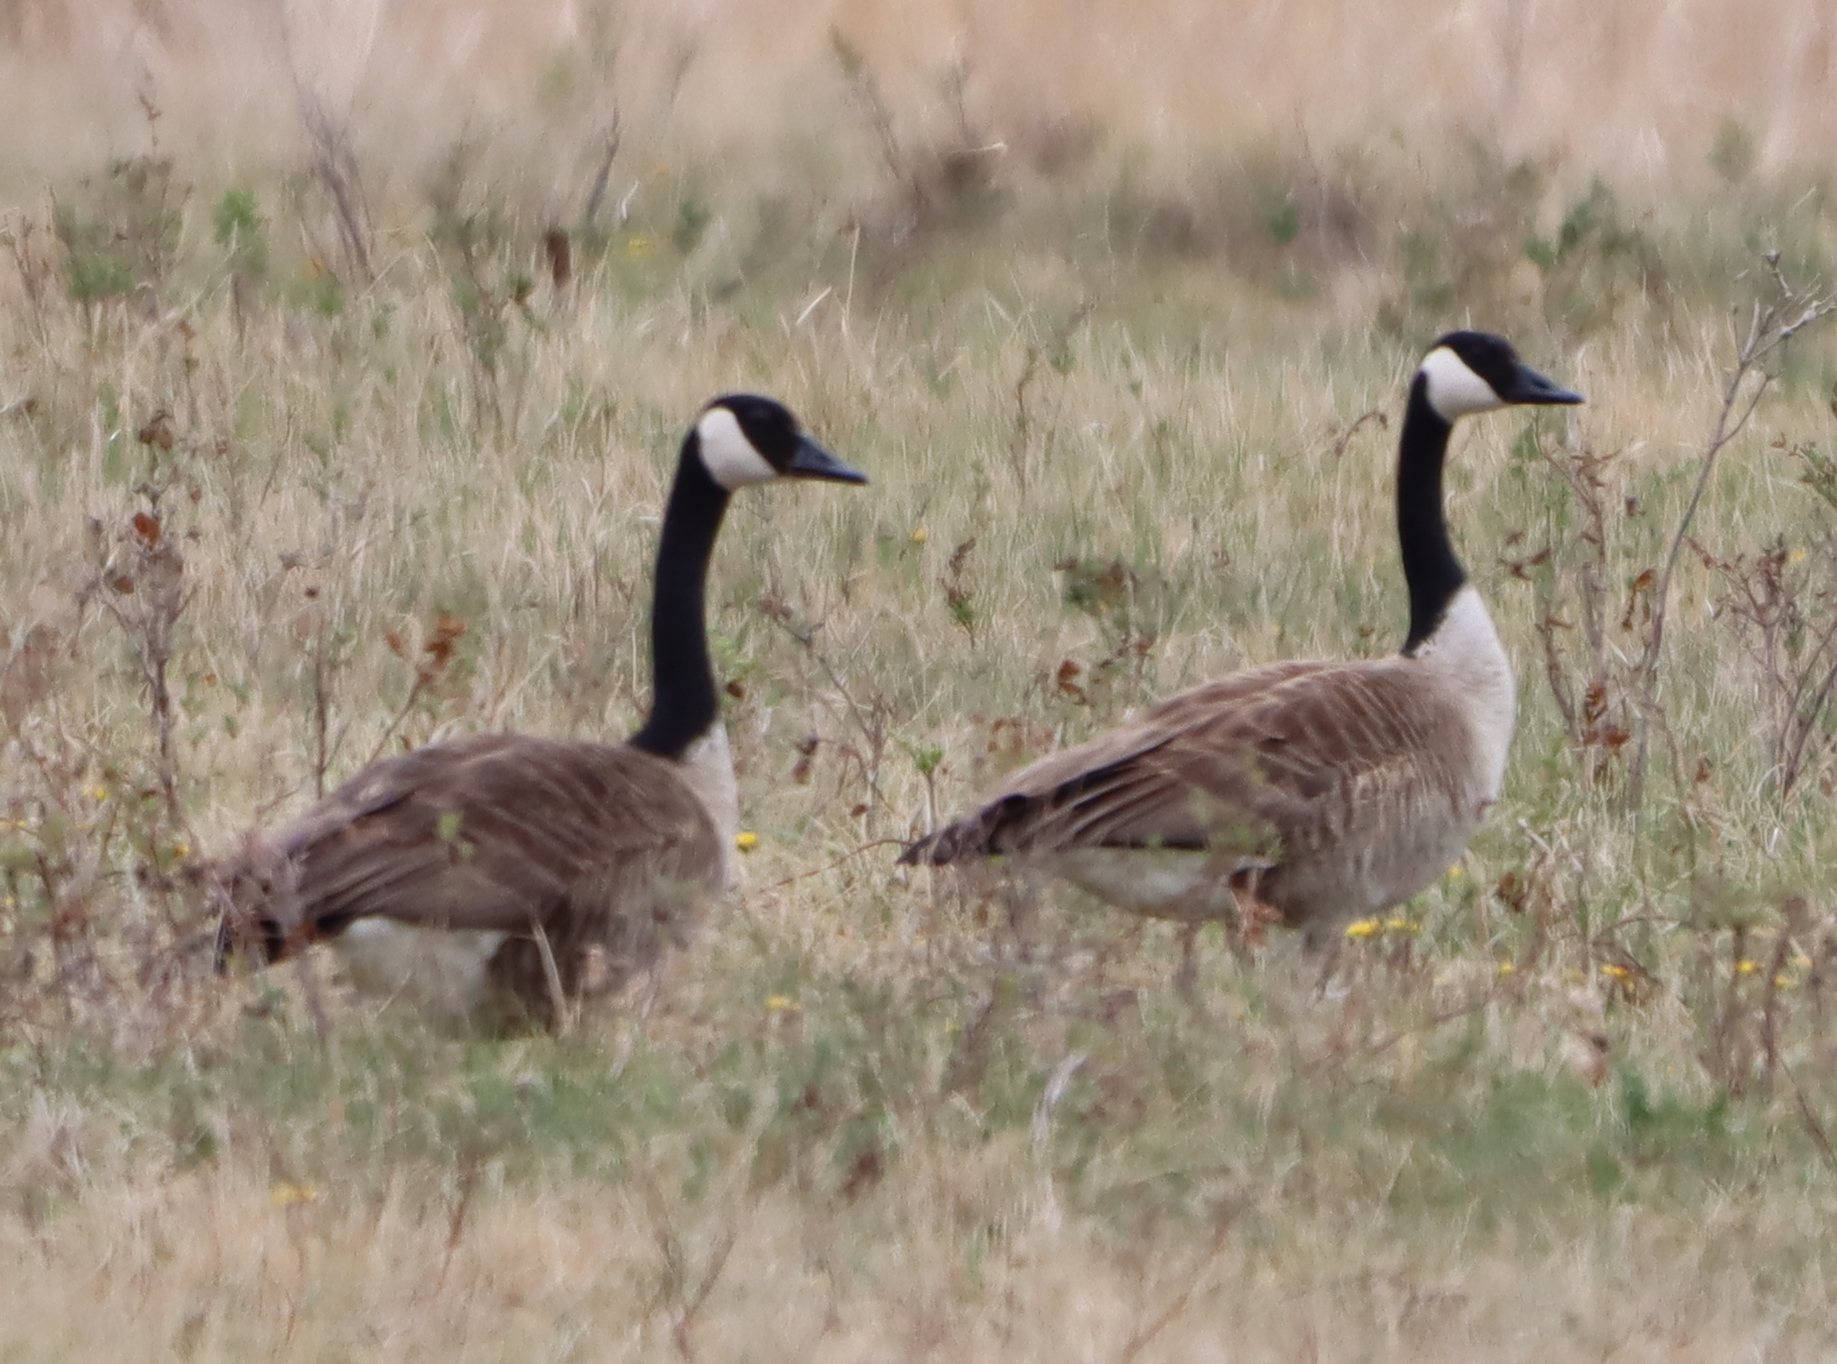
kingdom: Animalia
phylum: Chordata
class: Aves
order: Anseriformes
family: Anatidae
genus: Branta
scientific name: Branta canadensis
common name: Canada goose
